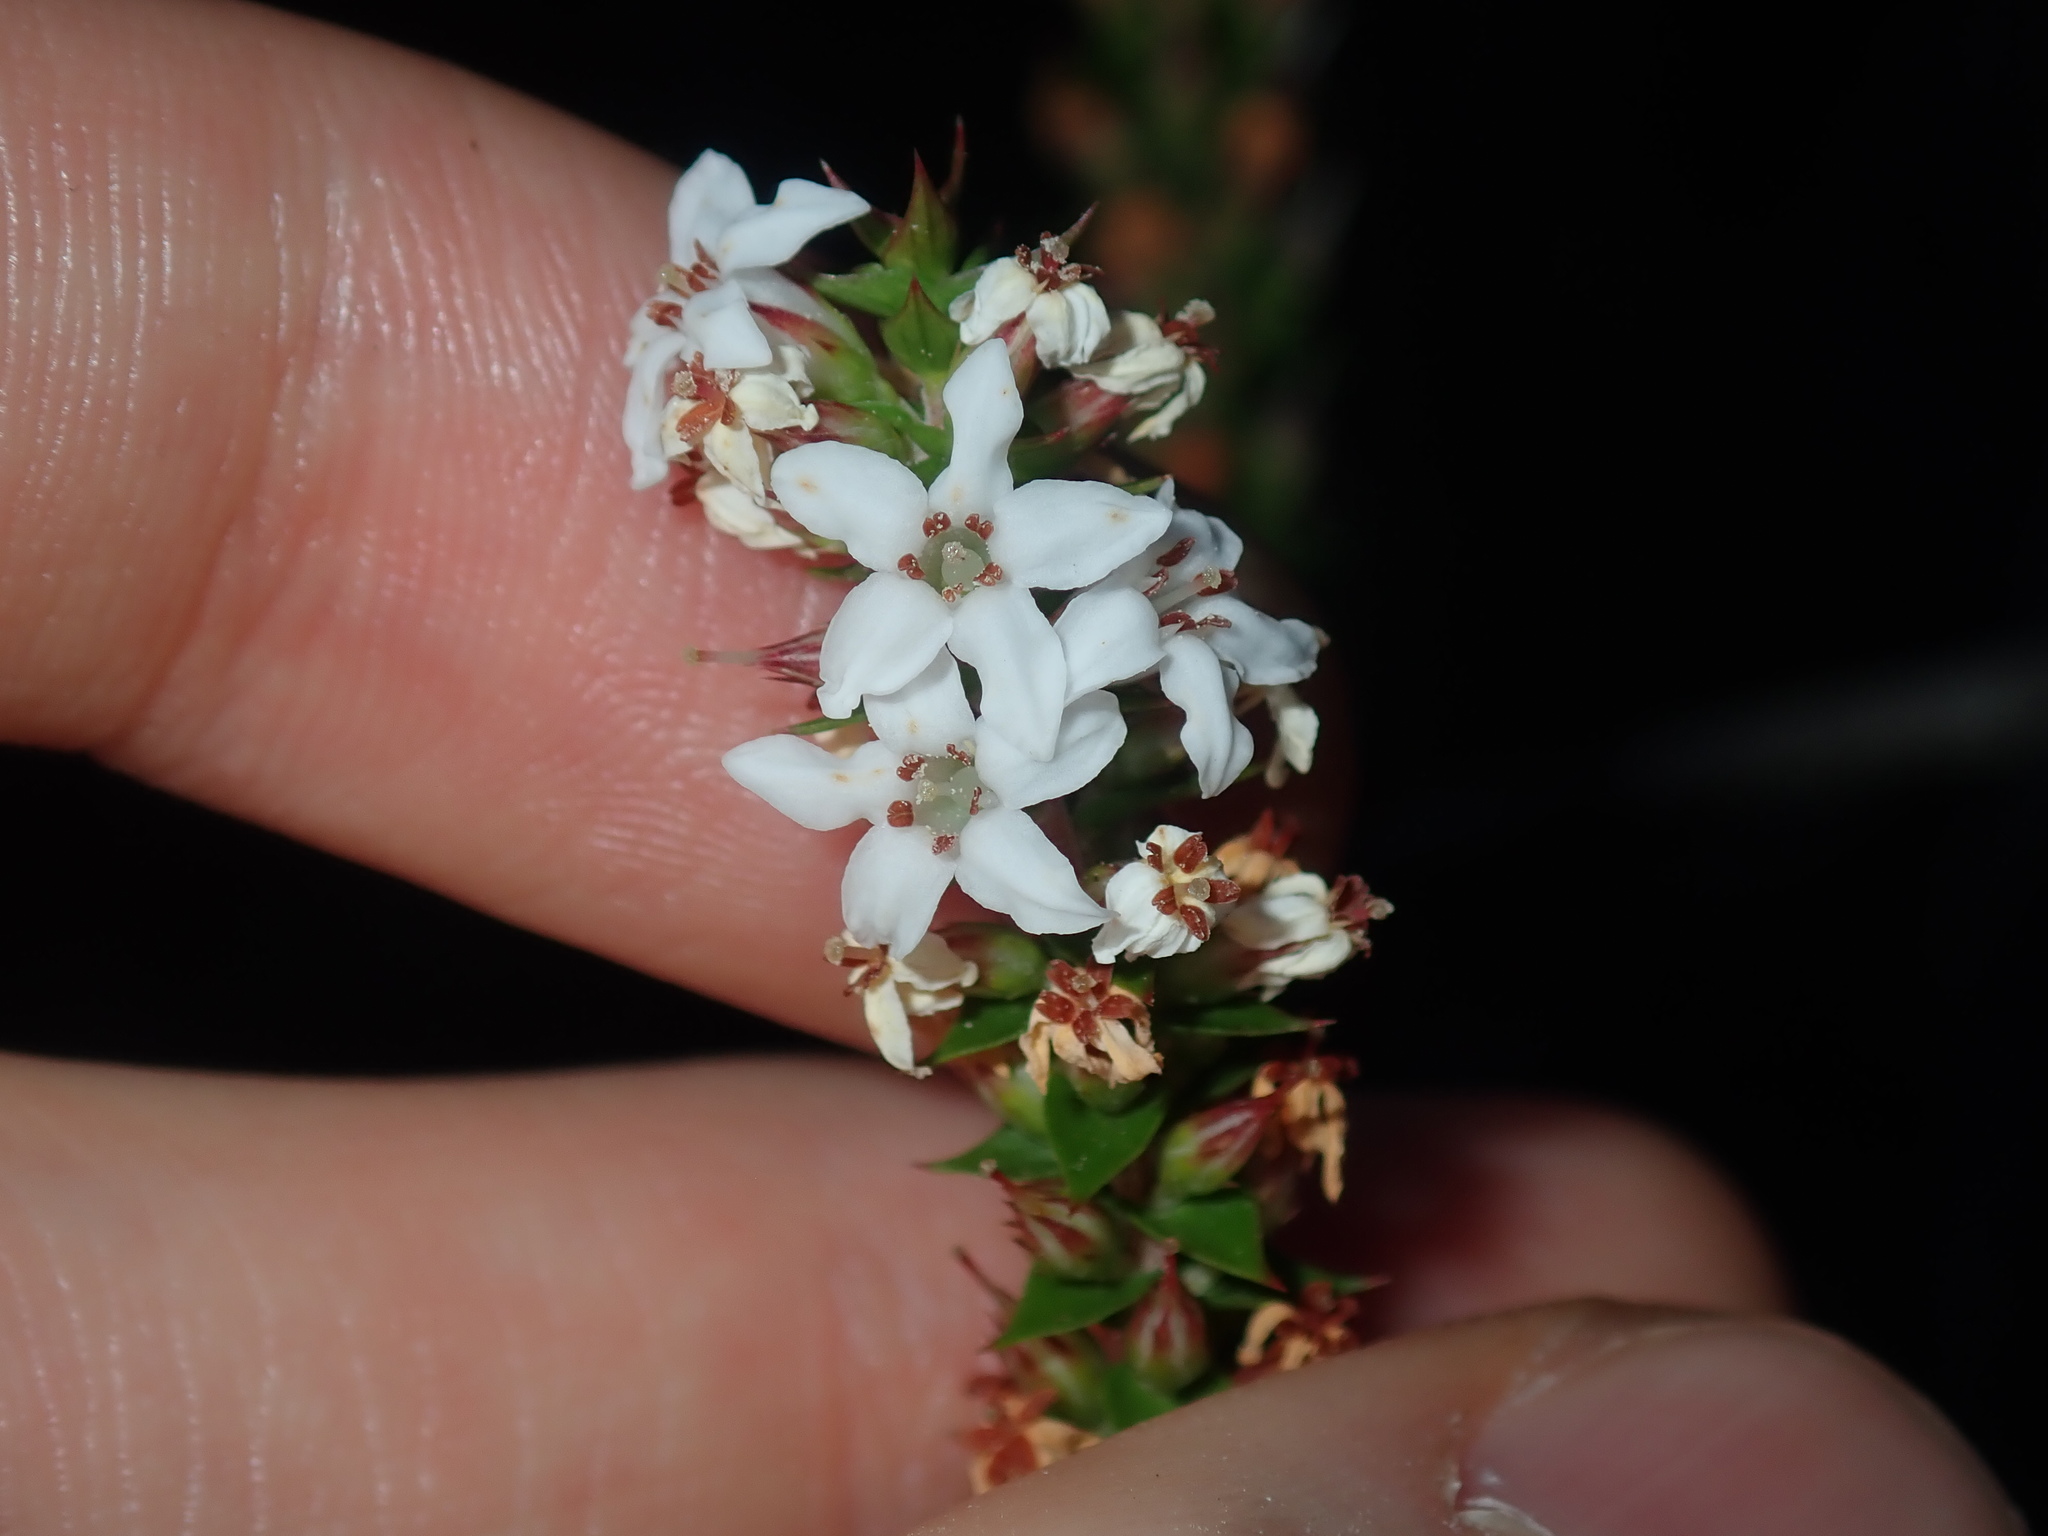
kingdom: Plantae
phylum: Tracheophyta
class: Magnoliopsida
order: Ericales
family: Ericaceae
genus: Epacris
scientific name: Epacris pulchella
